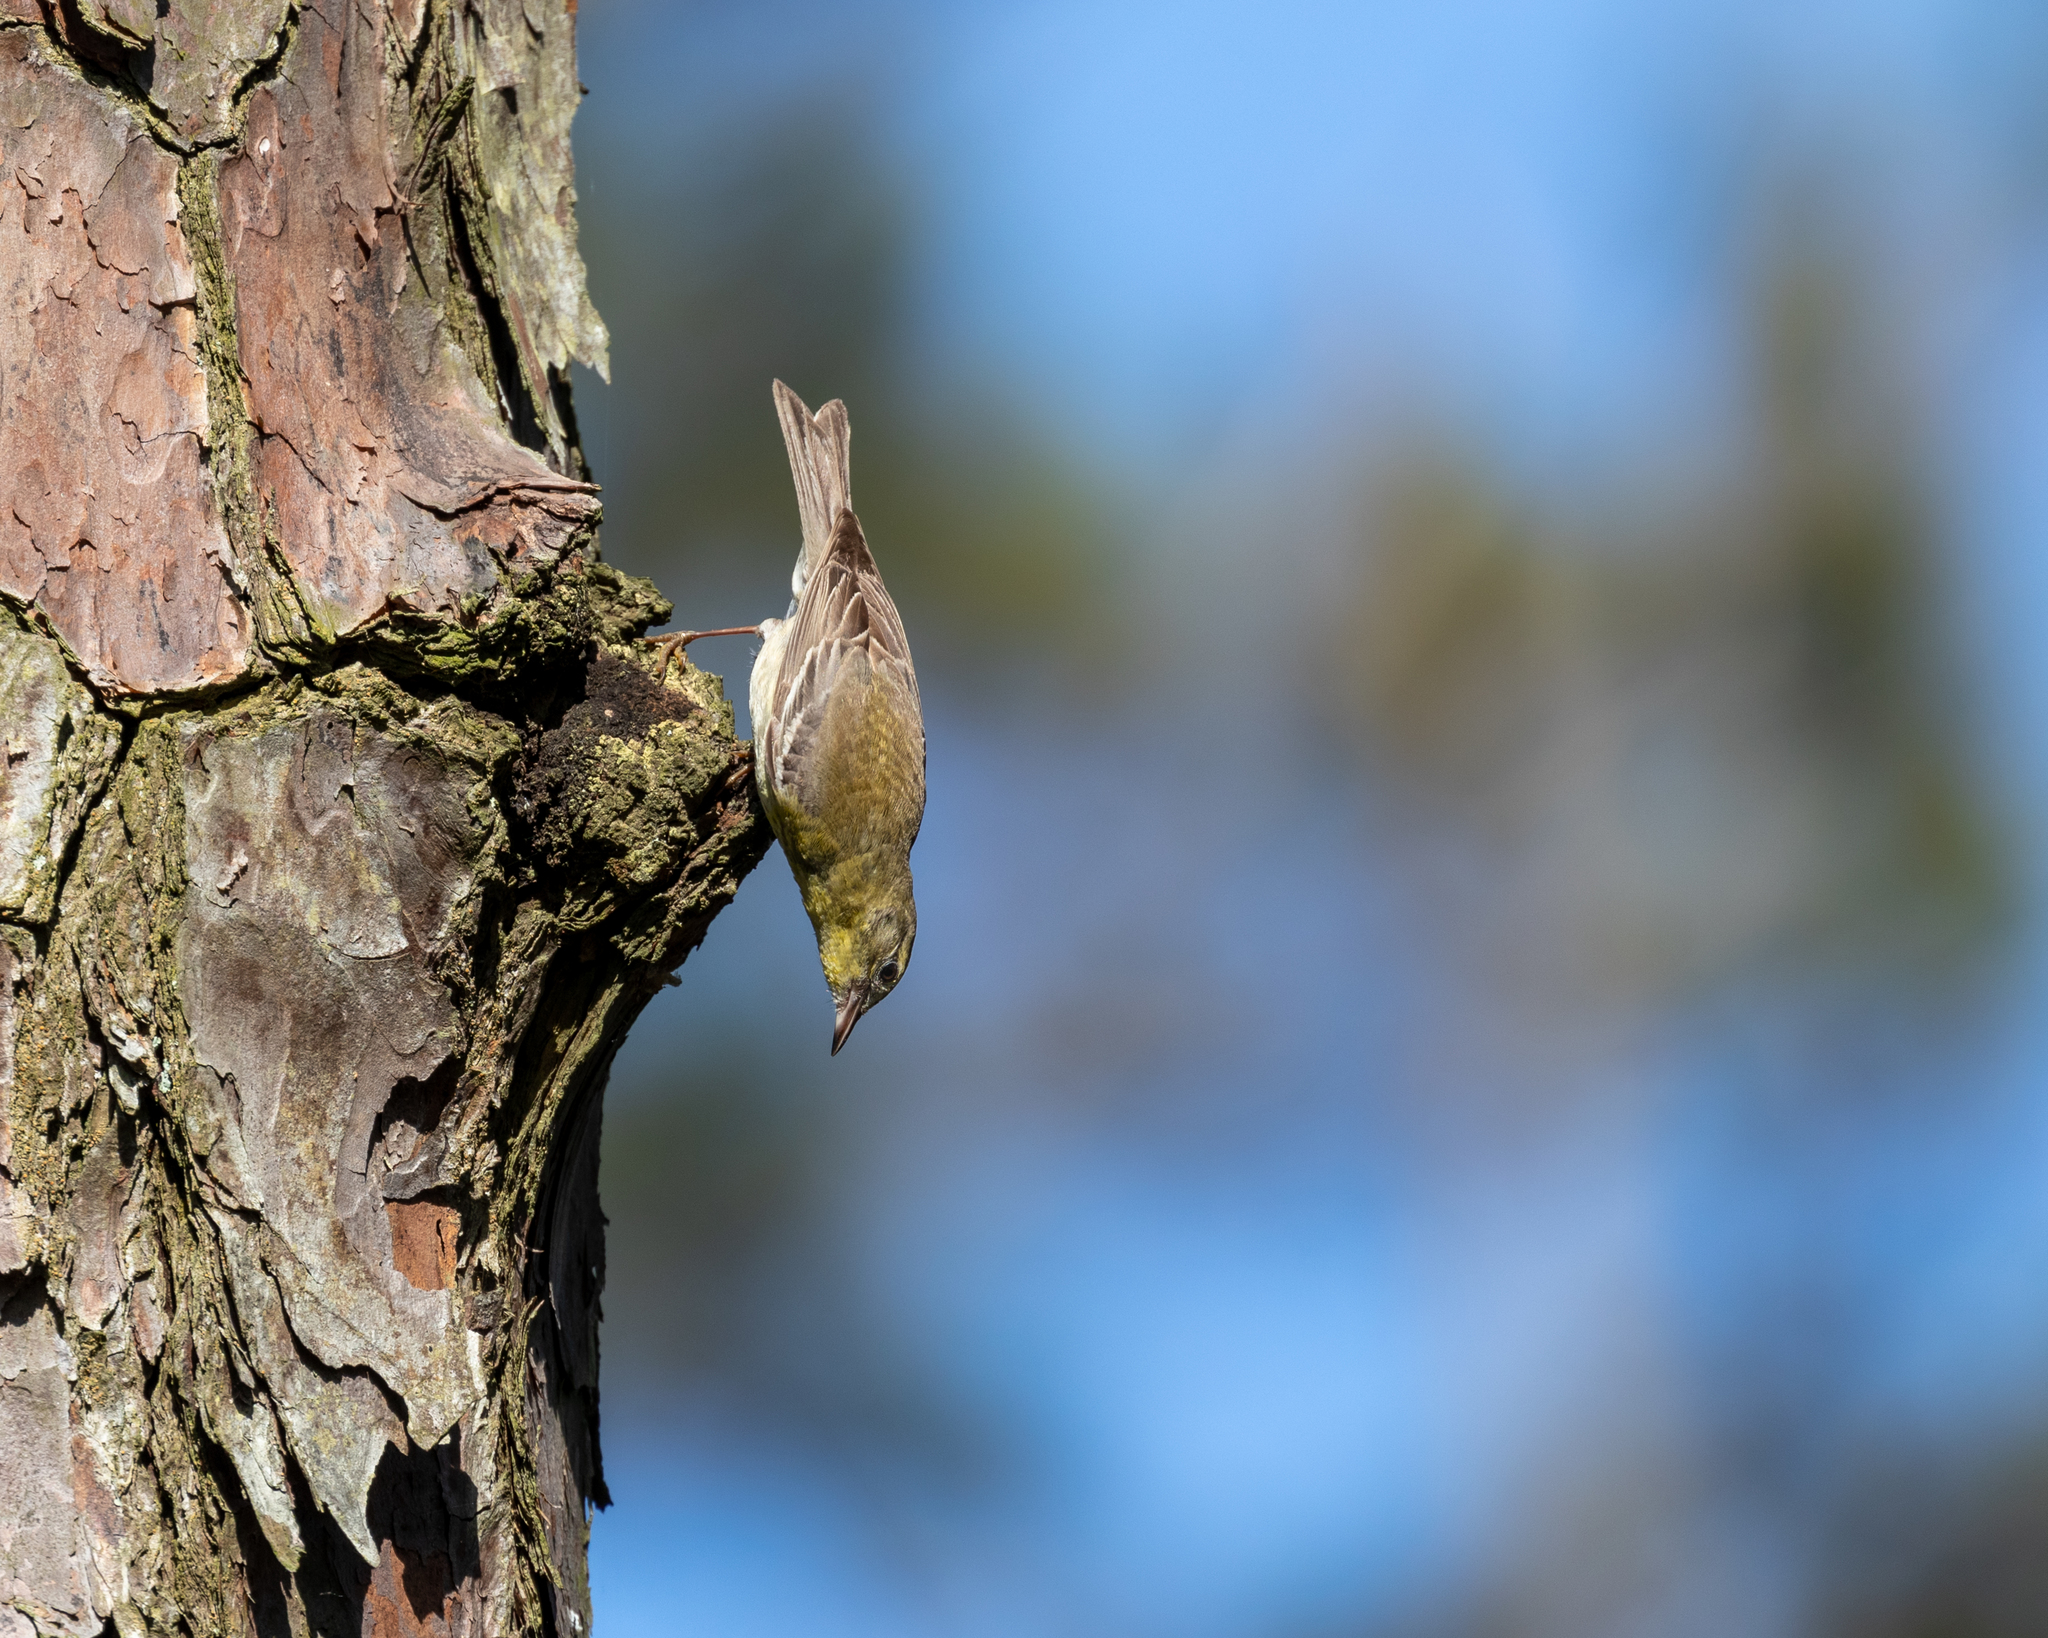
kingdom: Animalia
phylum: Chordata
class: Aves
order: Passeriformes
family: Parulidae
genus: Setophaga
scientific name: Setophaga pinus
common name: Pine warbler
